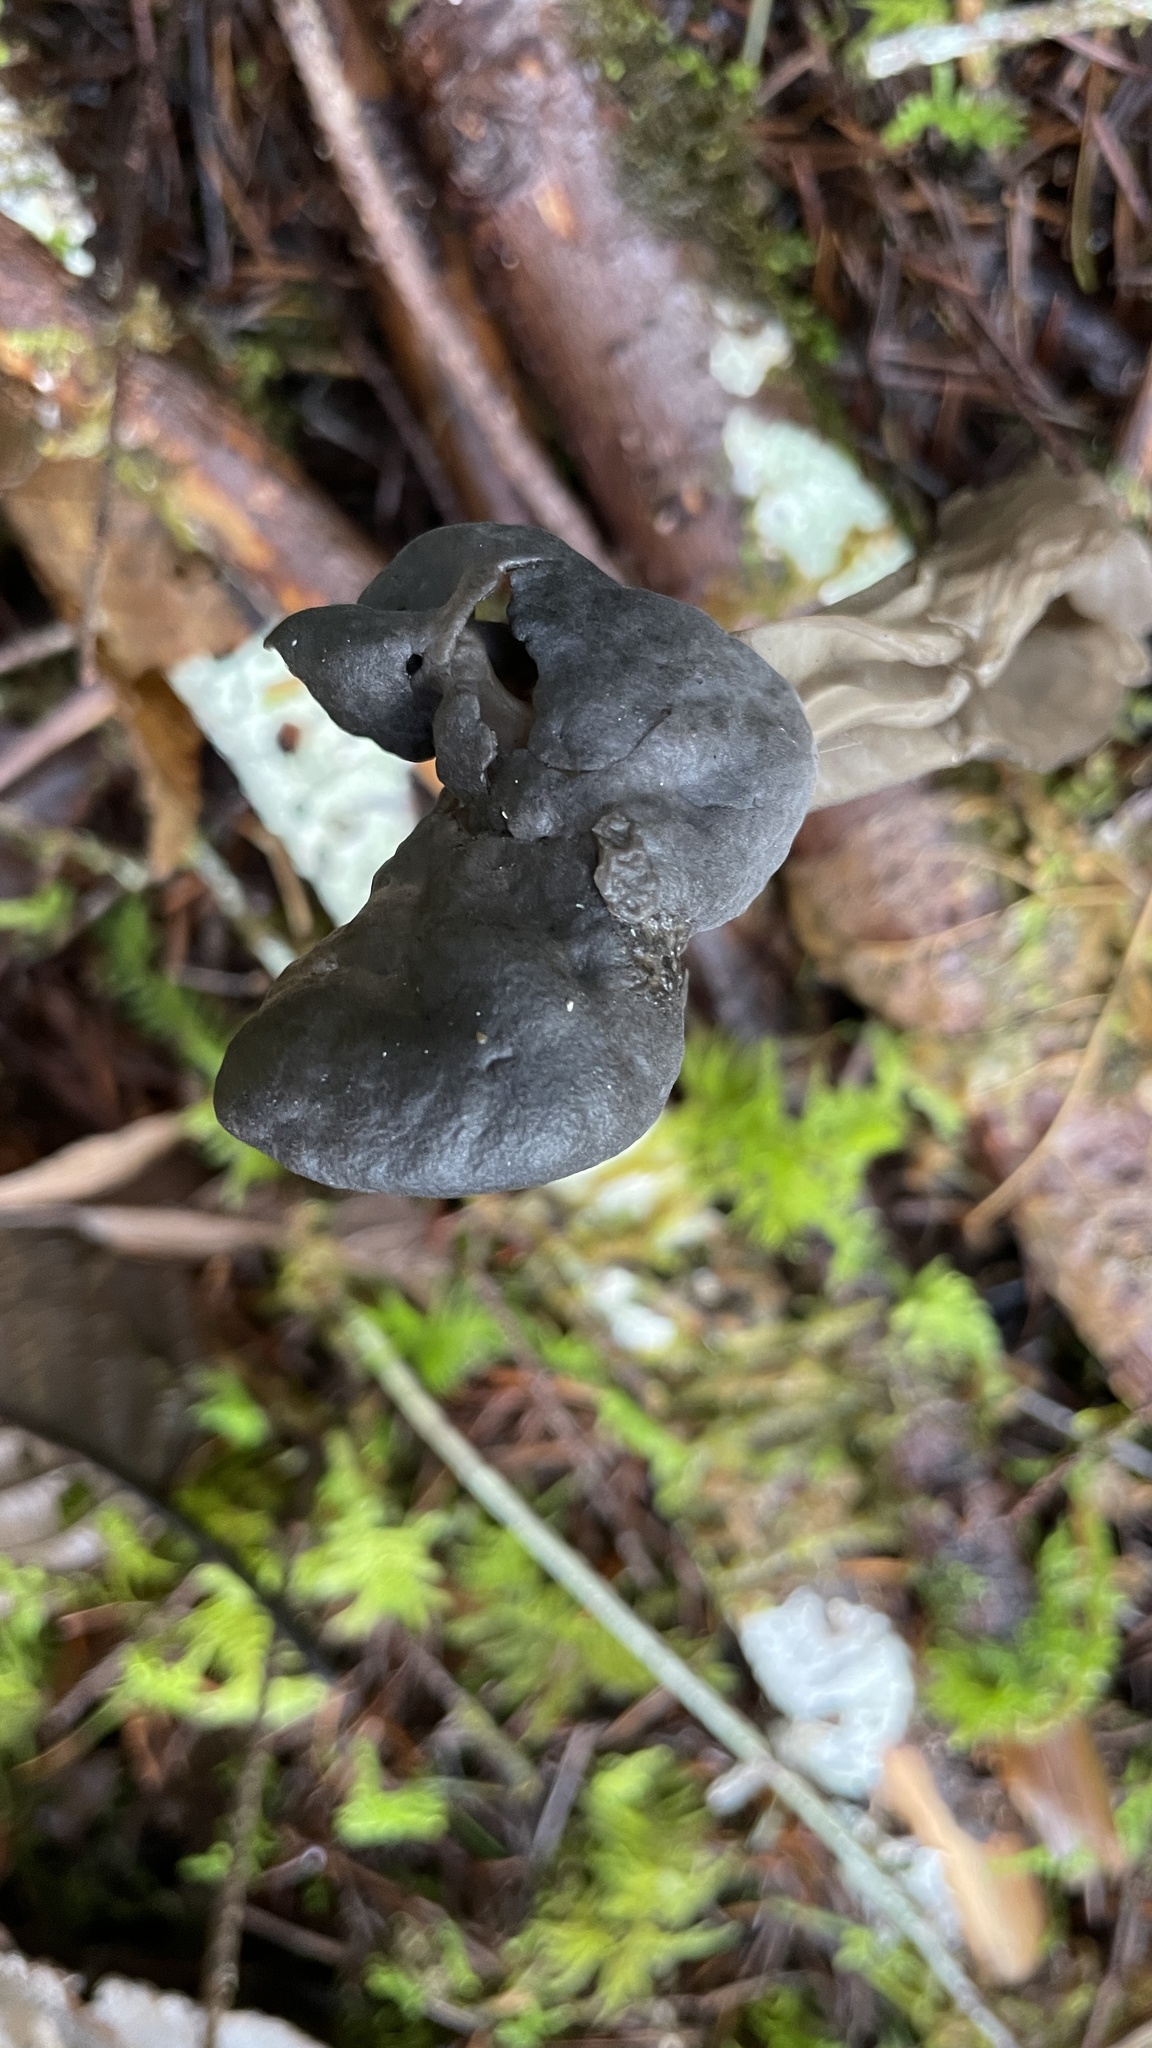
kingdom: Fungi
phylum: Ascomycota
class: Pezizomycetes
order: Pezizales
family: Helvellaceae
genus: Helvella
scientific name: Helvella vespertina
